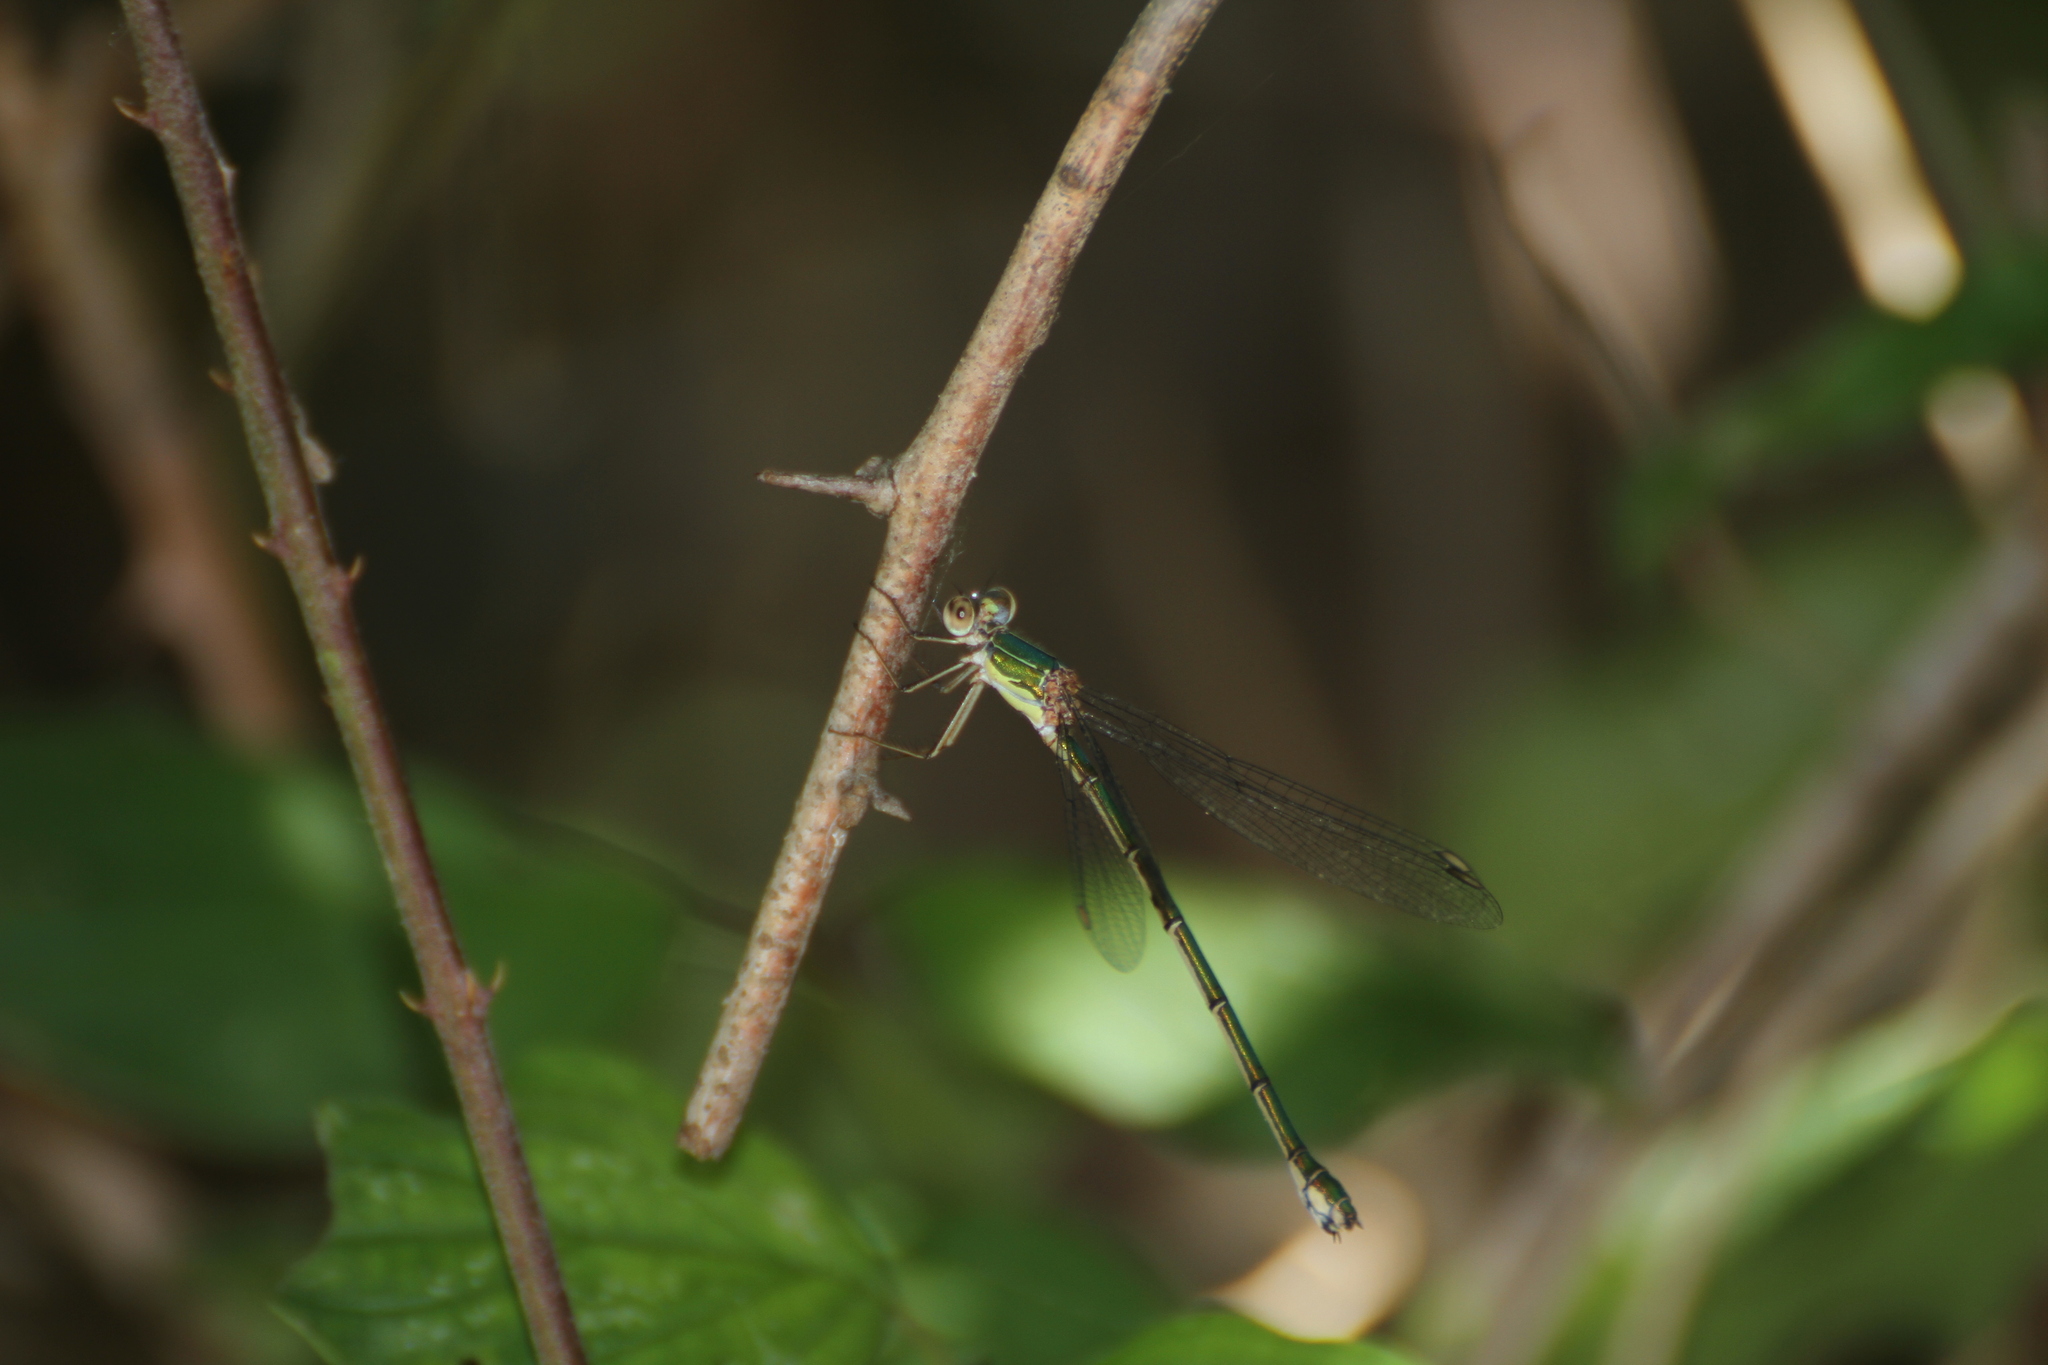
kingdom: Animalia
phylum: Arthropoda
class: Insecta
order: Odonata
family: Lestidae
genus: Chalcolestes
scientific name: Chalcolestes viridis
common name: Green emerald damselfly
